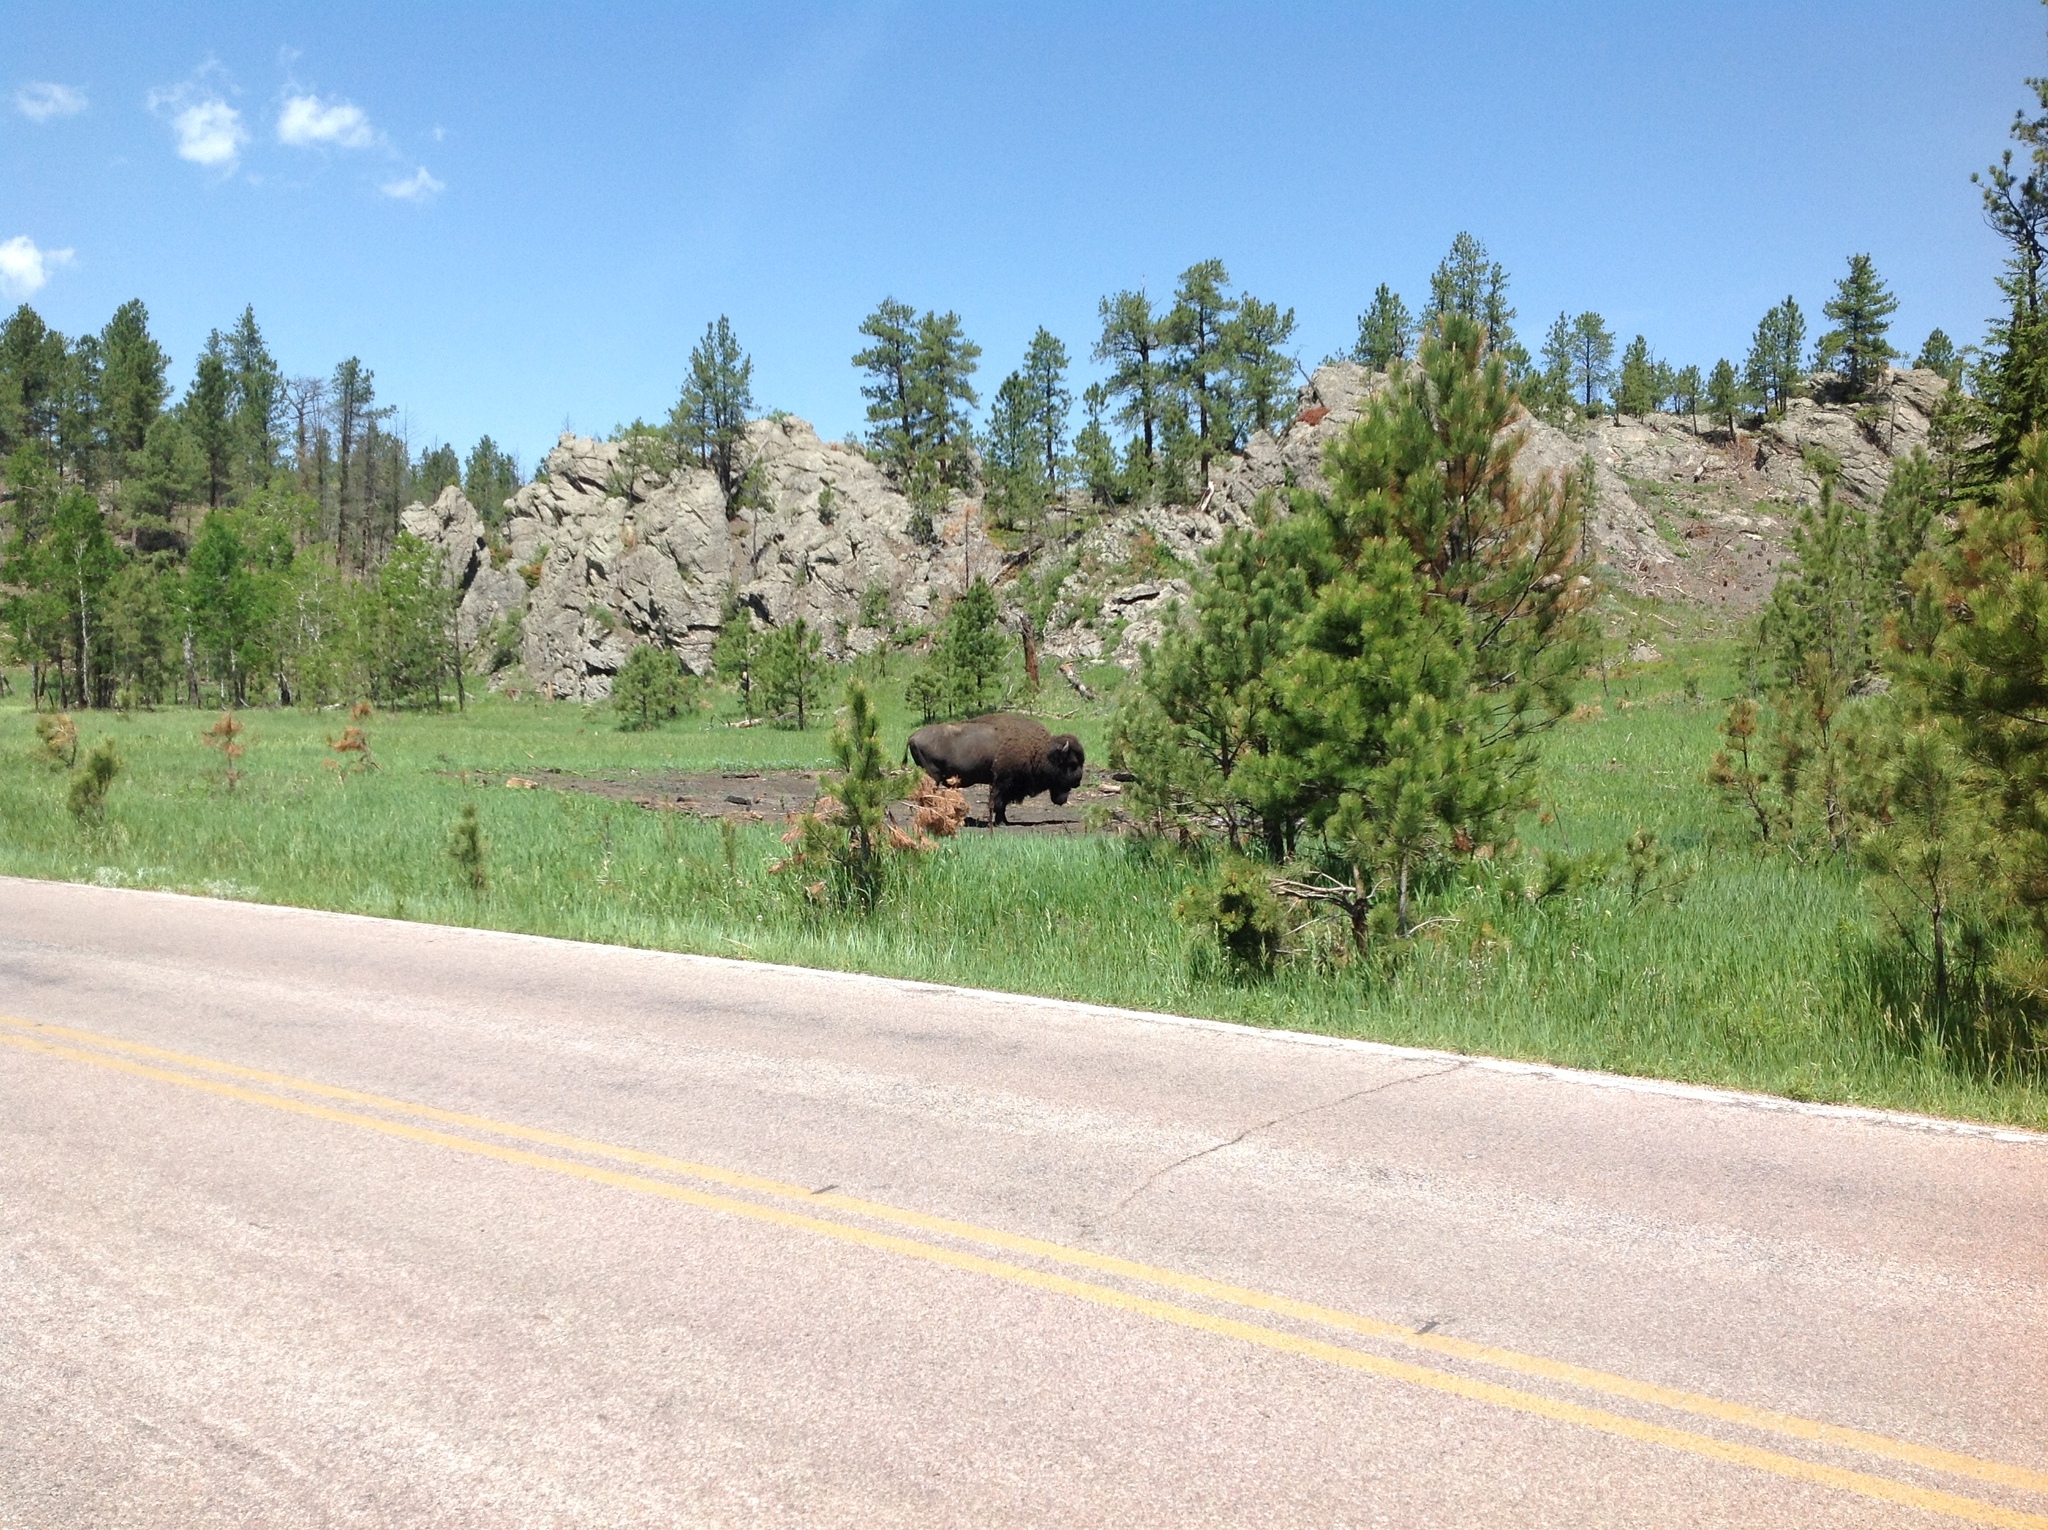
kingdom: Animalia
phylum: Chordata
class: Mammalia
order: Artiodactyla
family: Bovidae
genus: Bison
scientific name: Bison bison
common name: American bison
